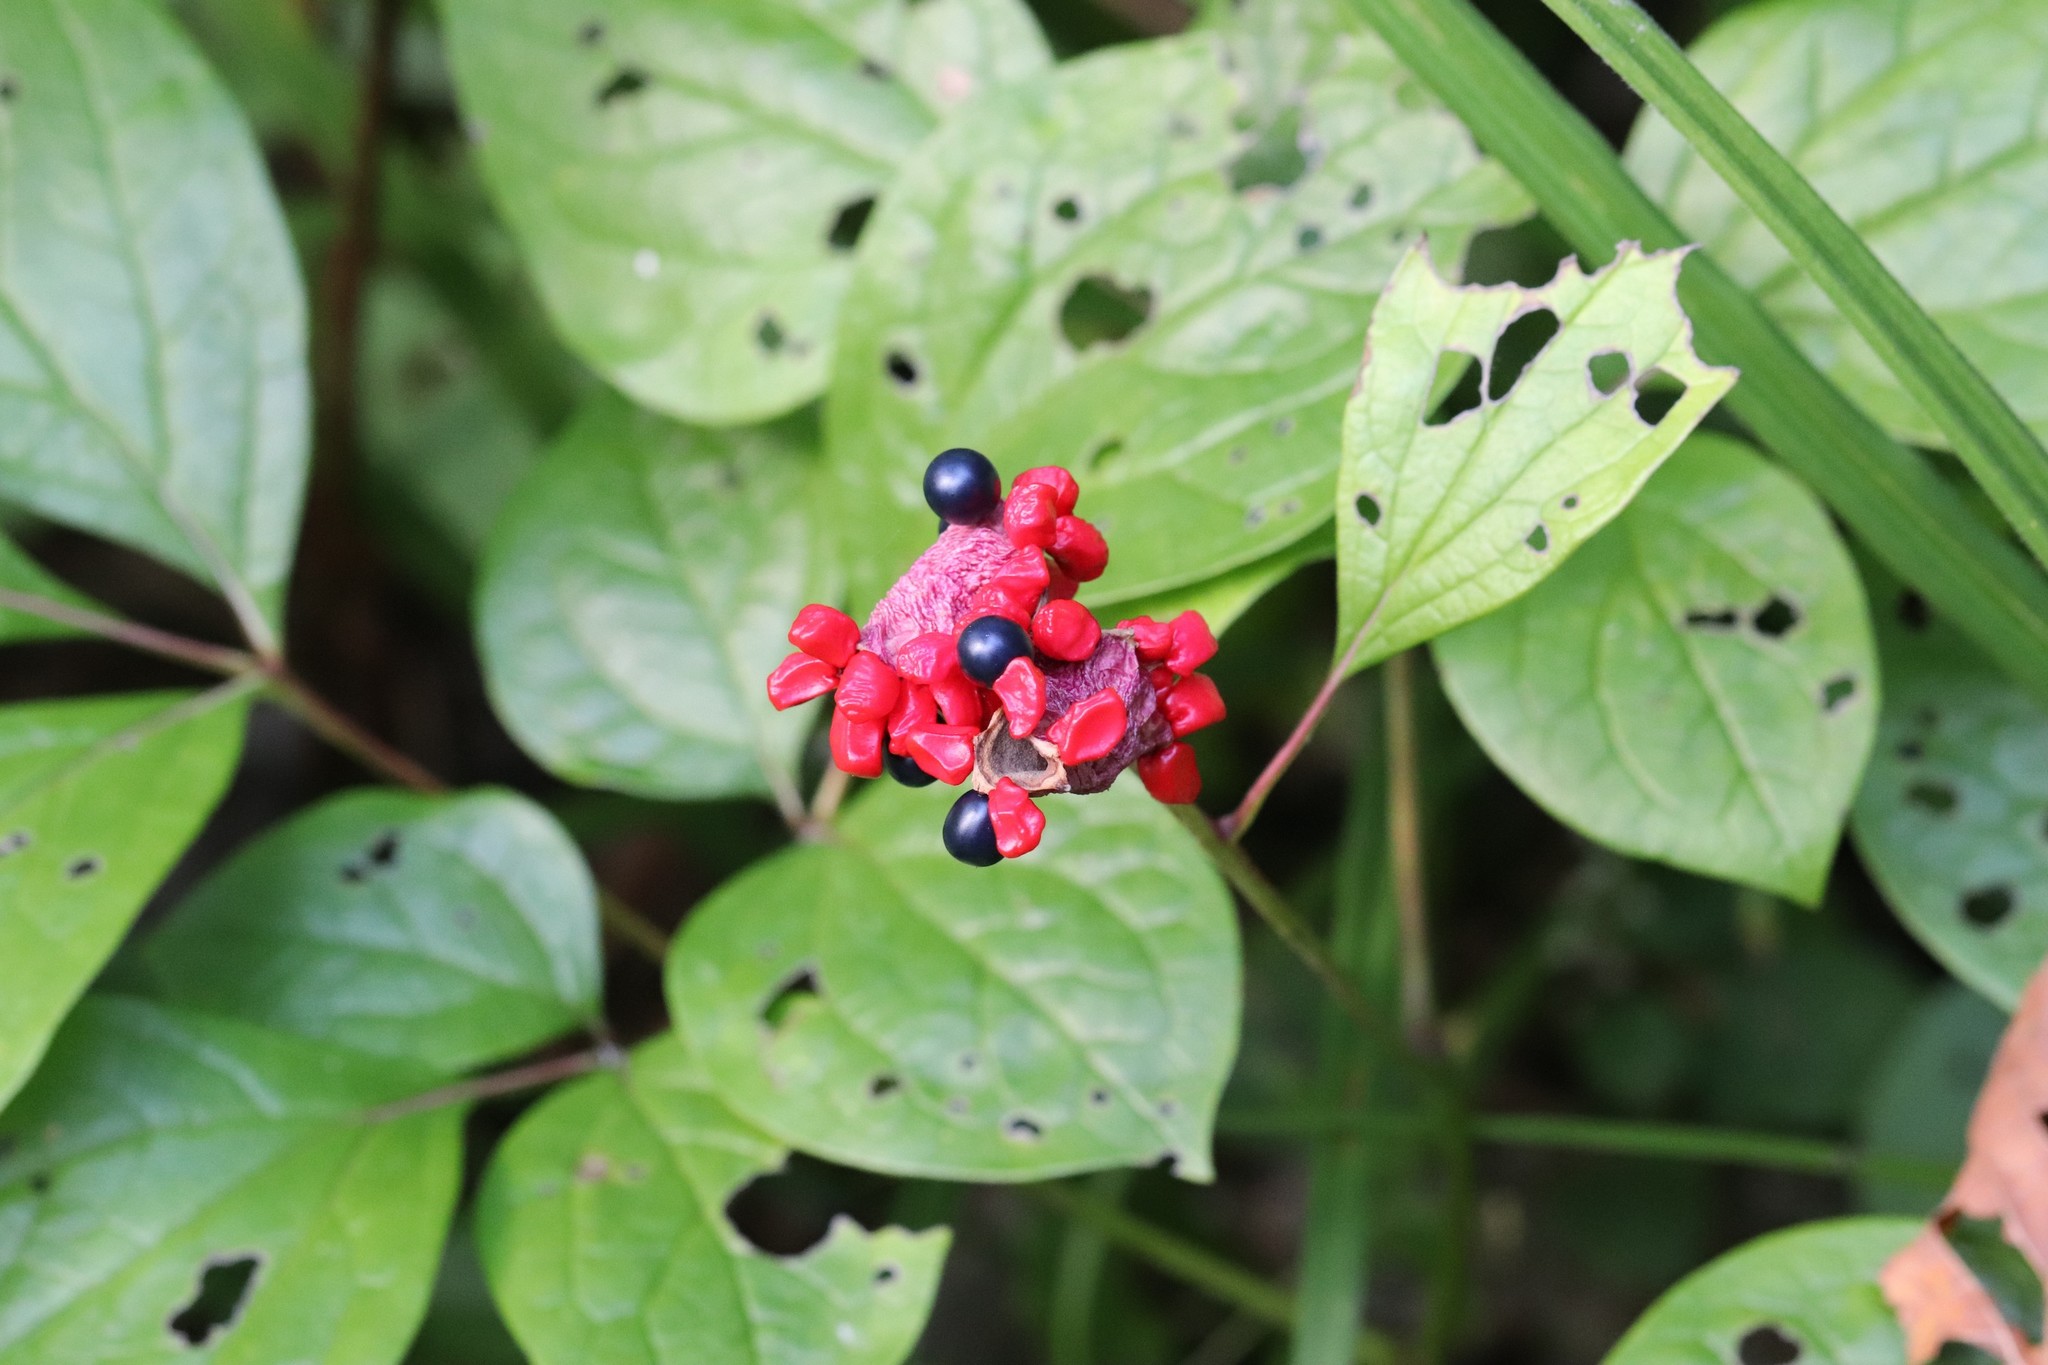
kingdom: Plantae
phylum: Tracheophyta
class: Magnoliopsida
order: Saxifragales
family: Paeoniaceae
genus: Paeonia
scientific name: Paeonia obovata
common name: Chinese peony
